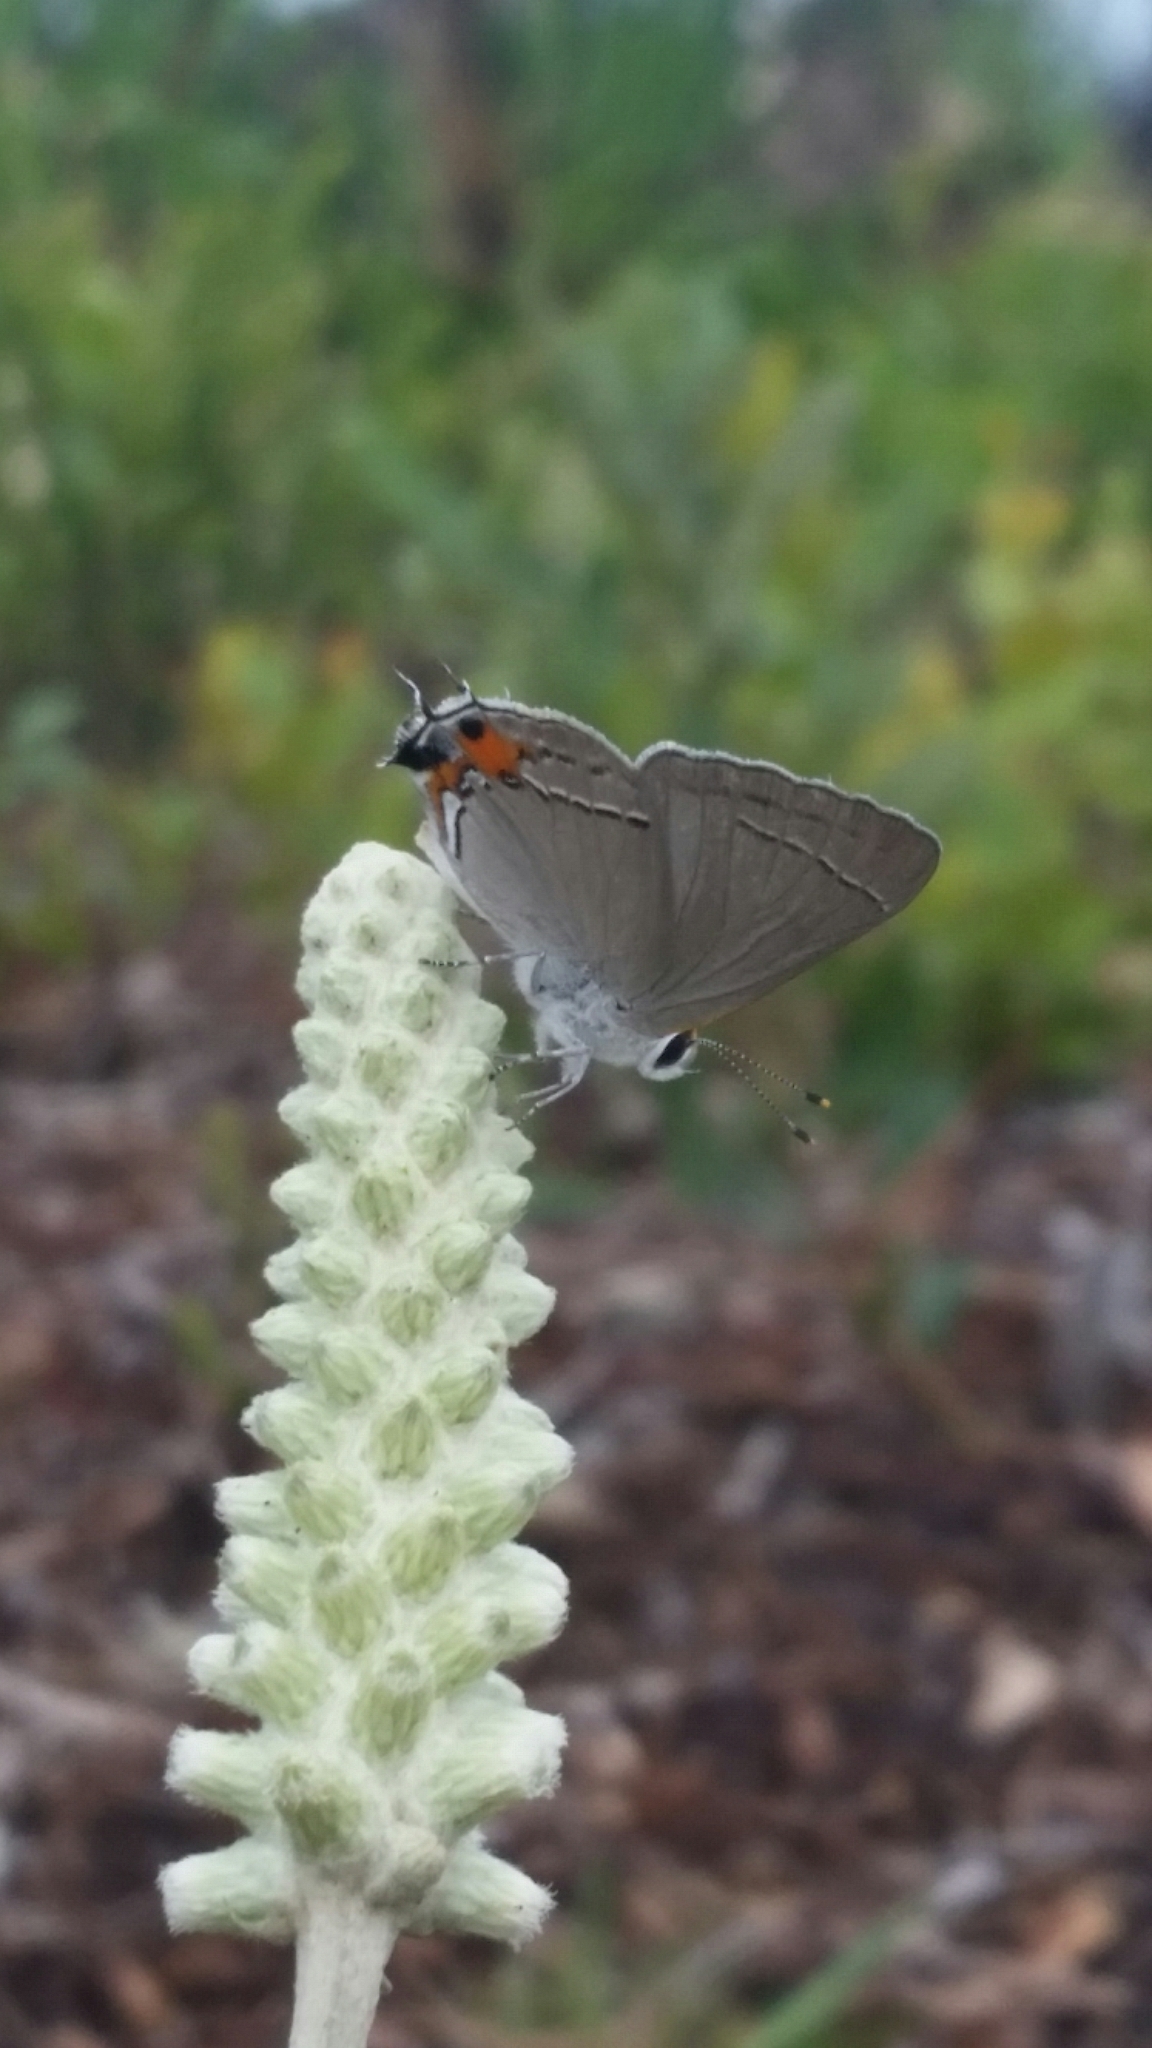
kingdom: Animalia
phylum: Arthropoda
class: Insecta
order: Lepidoptera
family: Lycaenidae
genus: Strymon
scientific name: Strymon melinus
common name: Gray hairstreak
